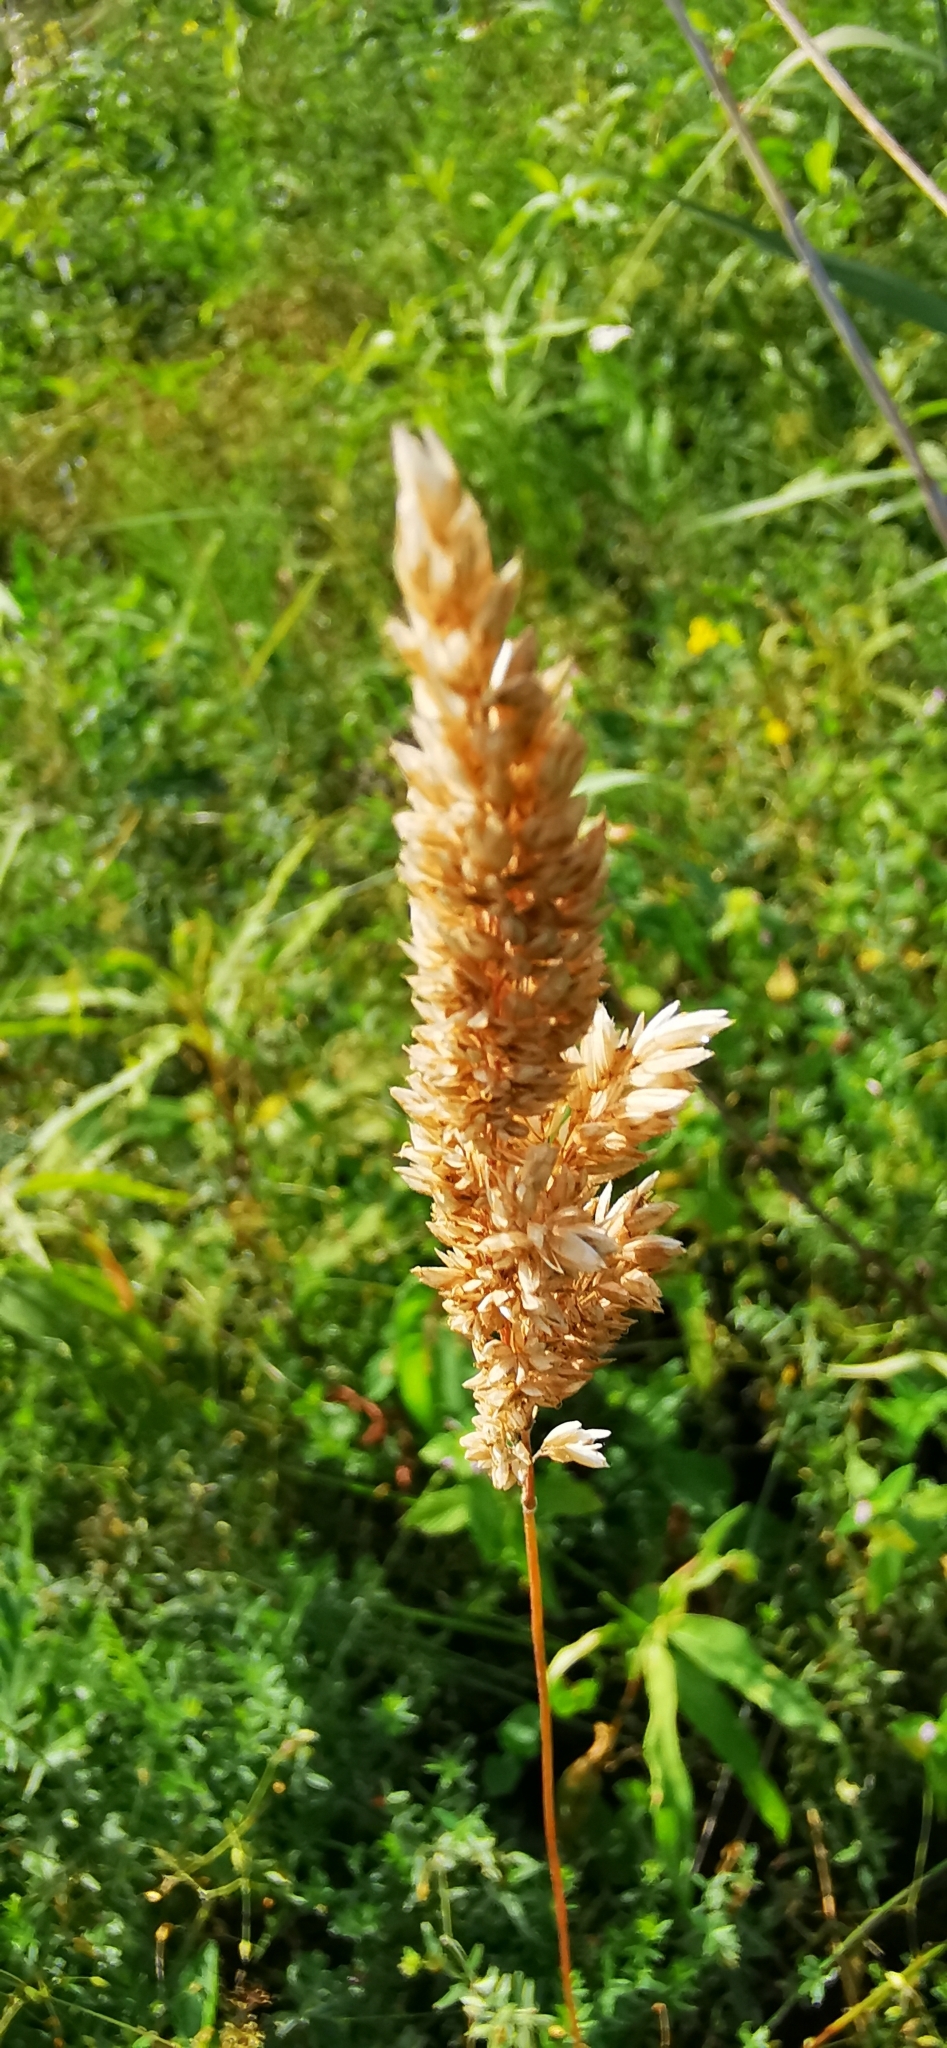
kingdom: Plantae
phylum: Tracheophyta
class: Liliopsida
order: Poales
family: Poaceae
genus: Holcus
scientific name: Holcus lanatus
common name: Yorkshire-fog
